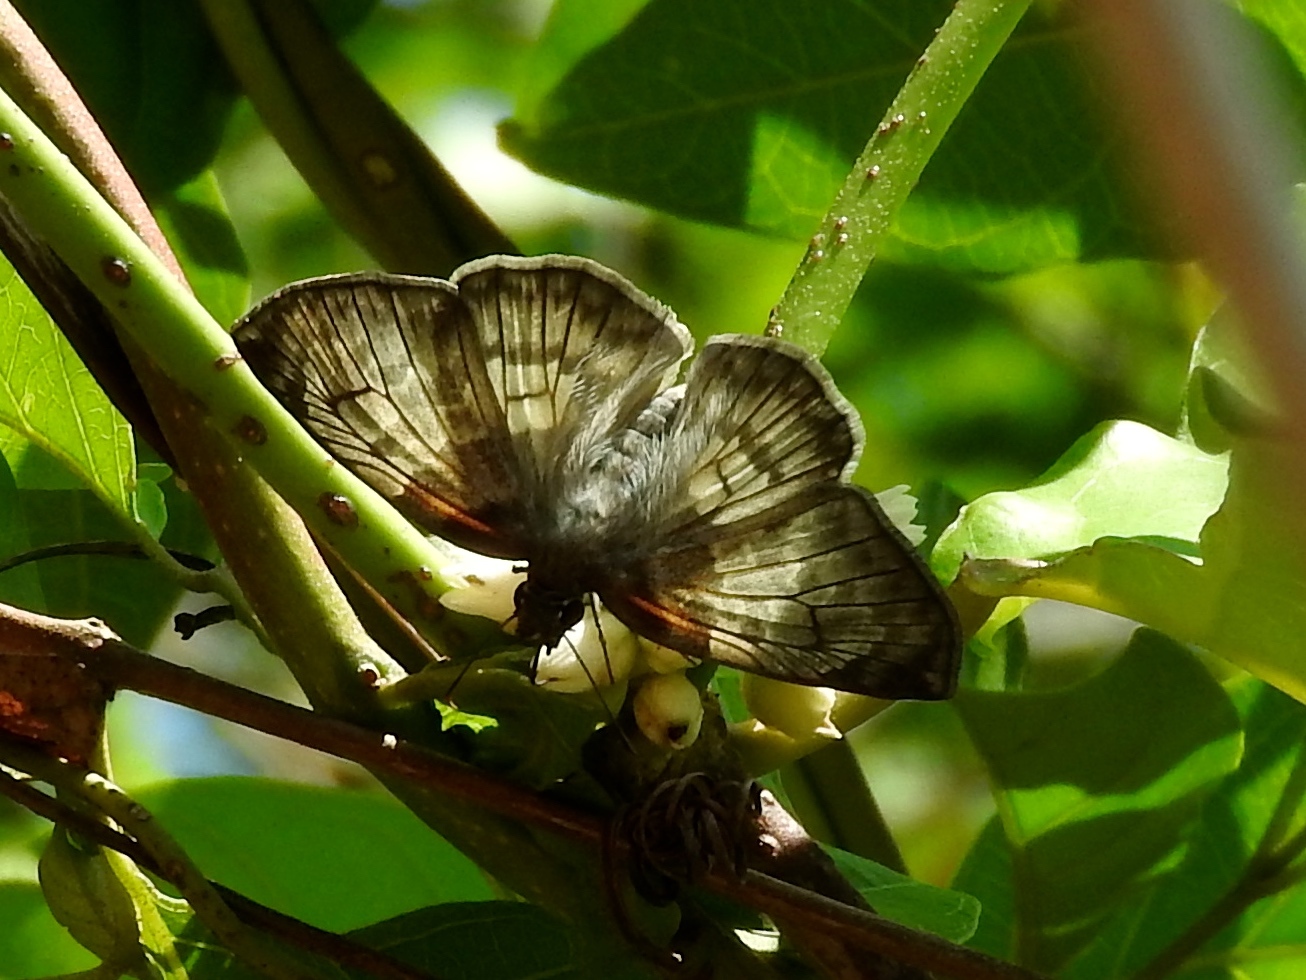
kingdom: Animalia
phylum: Arthropoda
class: Insecta
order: Lepidoptera
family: Hesperiidae
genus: Mylon
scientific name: Mylon pelopidas
